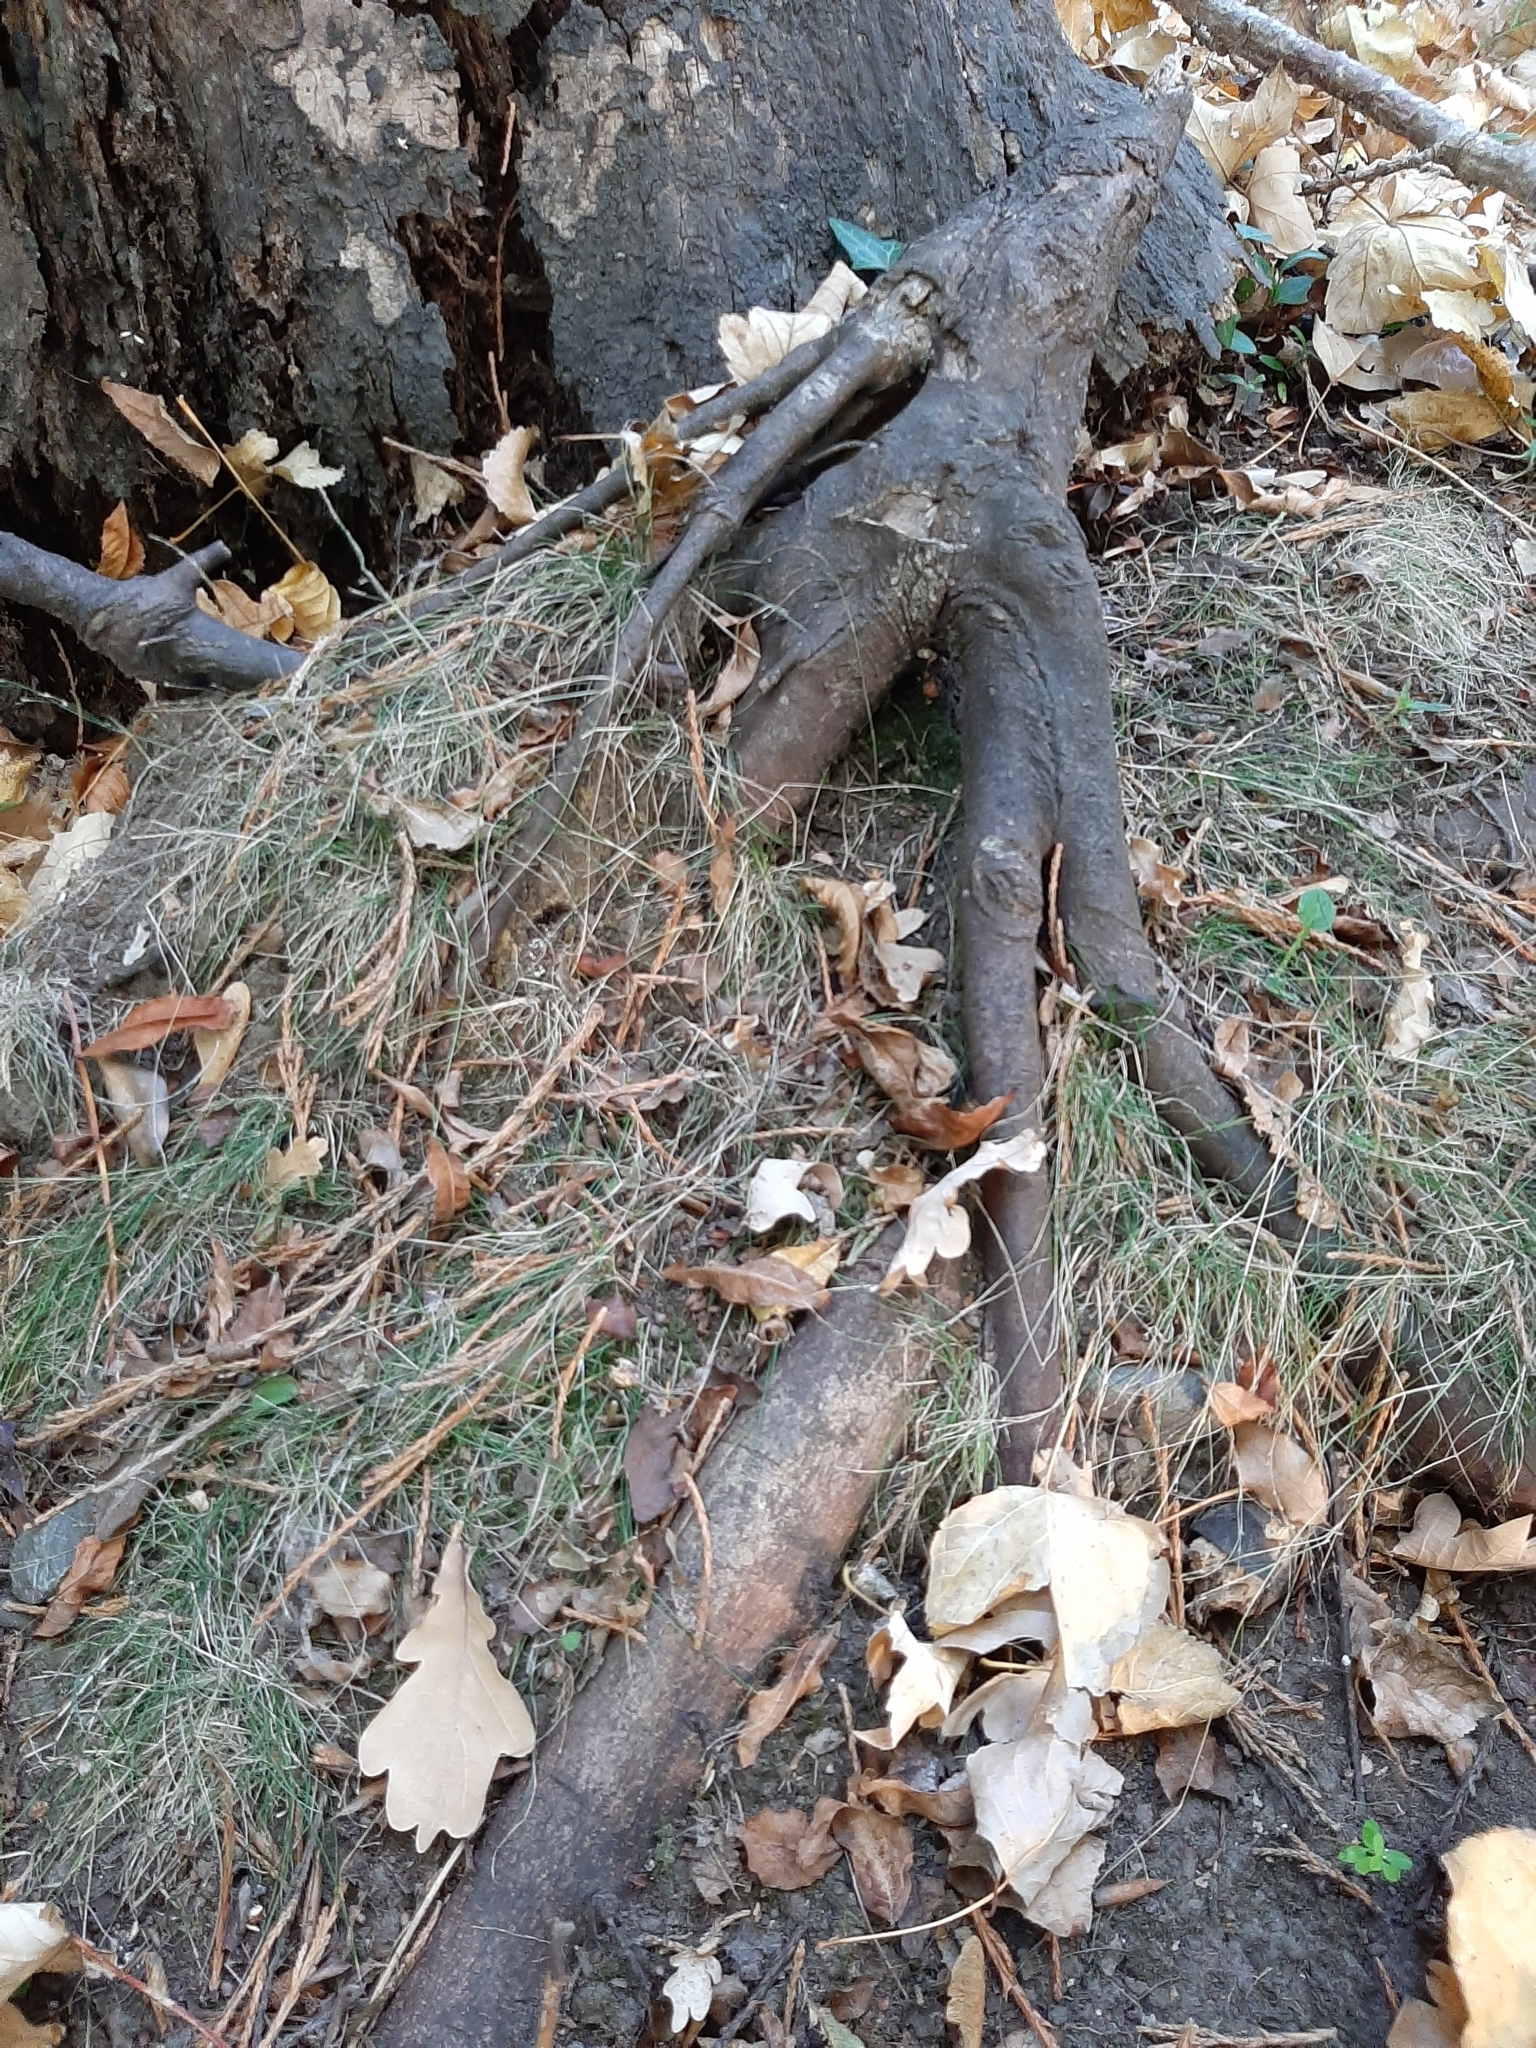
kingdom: Plantae
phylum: Tracheophyta
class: Liliopsida
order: Poales
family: Poaceae
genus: Poa
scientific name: Poa imbecilla
